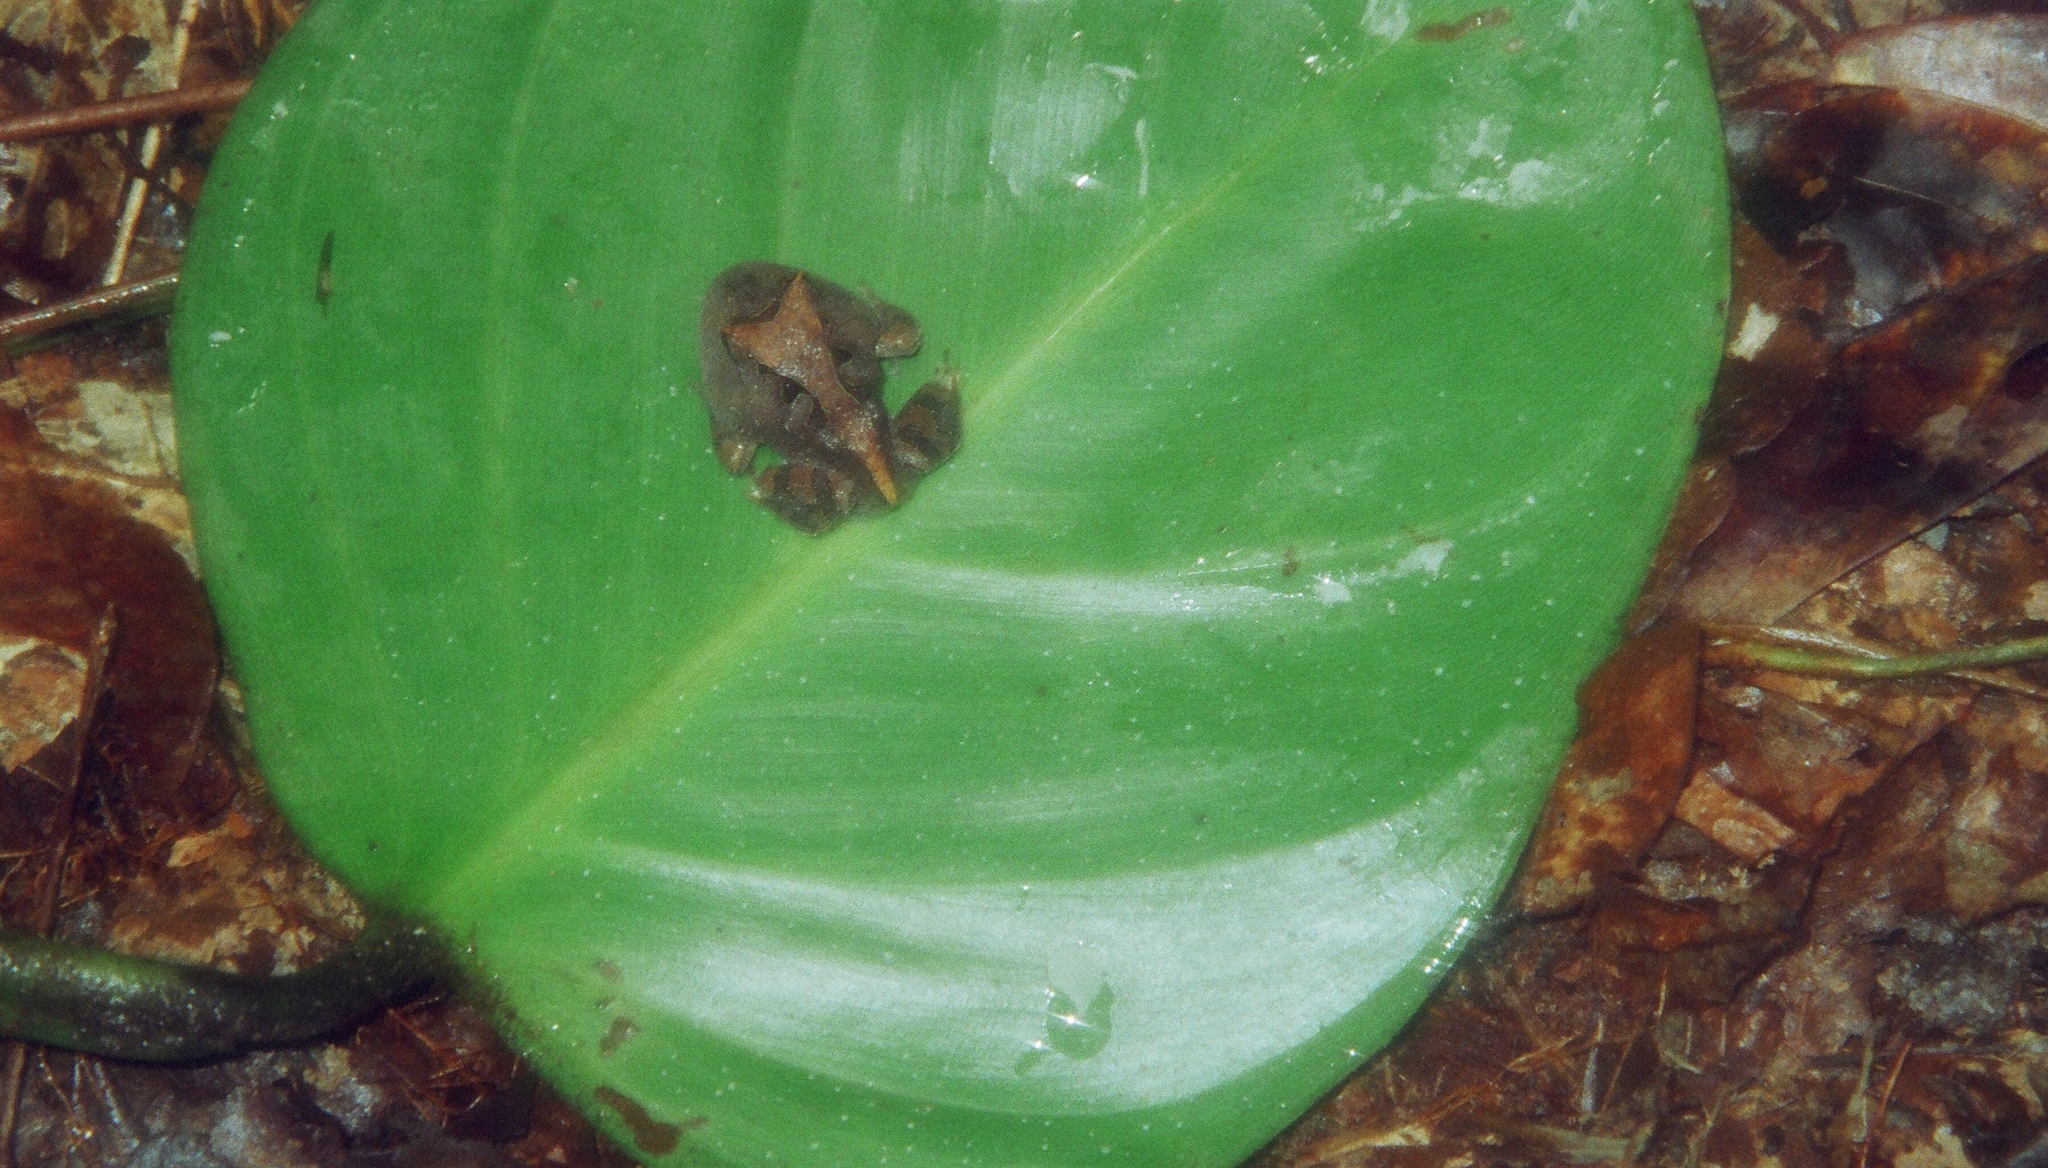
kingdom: Animalia
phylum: Chordata
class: Amphibia
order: Anura
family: Ceratophryidae
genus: Ceratophrys
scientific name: Ceratophrys cornuta
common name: Amazonian horned frog
